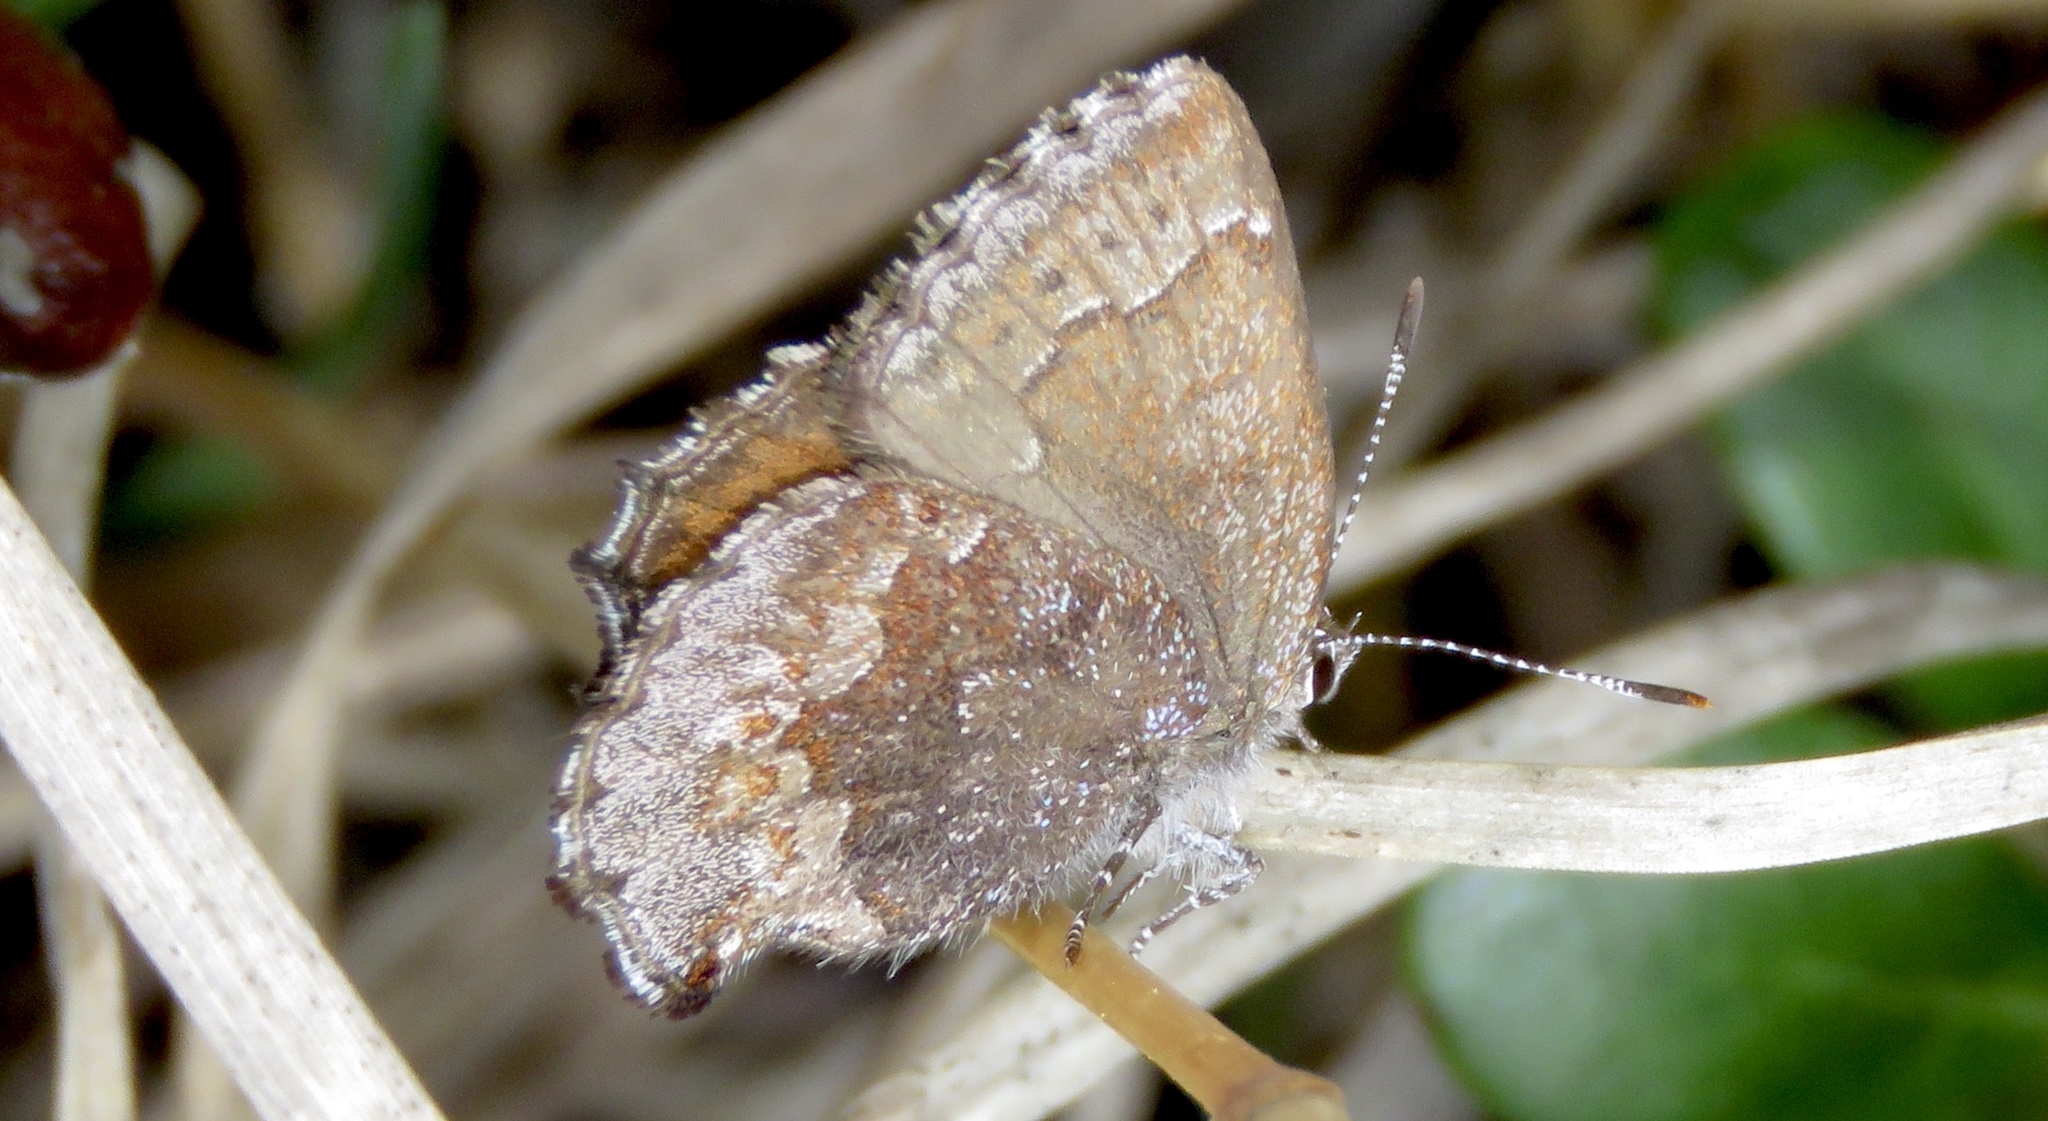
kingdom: Animalia
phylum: Arthropoda
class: Insecta
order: Lepidoptera
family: Lycaenidae
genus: Callophrys
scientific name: Callophrys polios
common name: Hoary elfin
